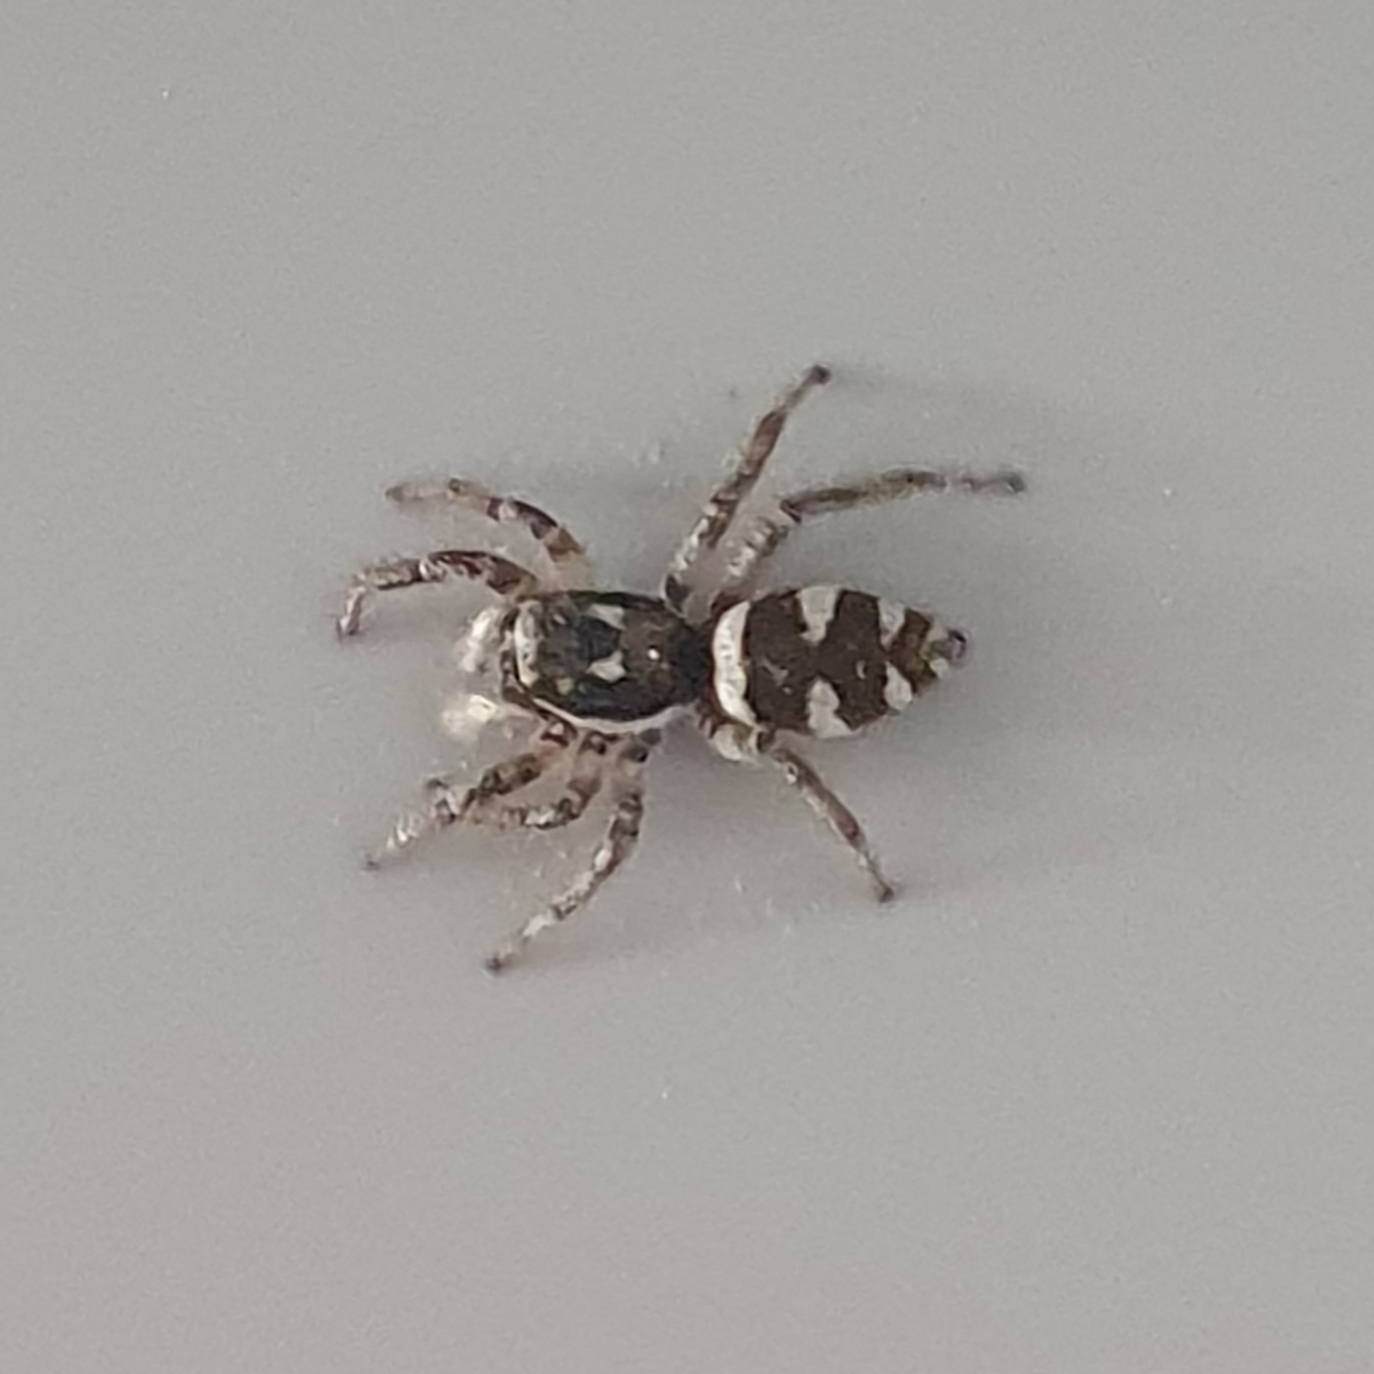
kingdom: Animalia
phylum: Arthropoda
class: Arachnida
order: Araneae
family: Salticidae
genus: Salticus
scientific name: Salticus scenicus
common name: Zebra jumper
